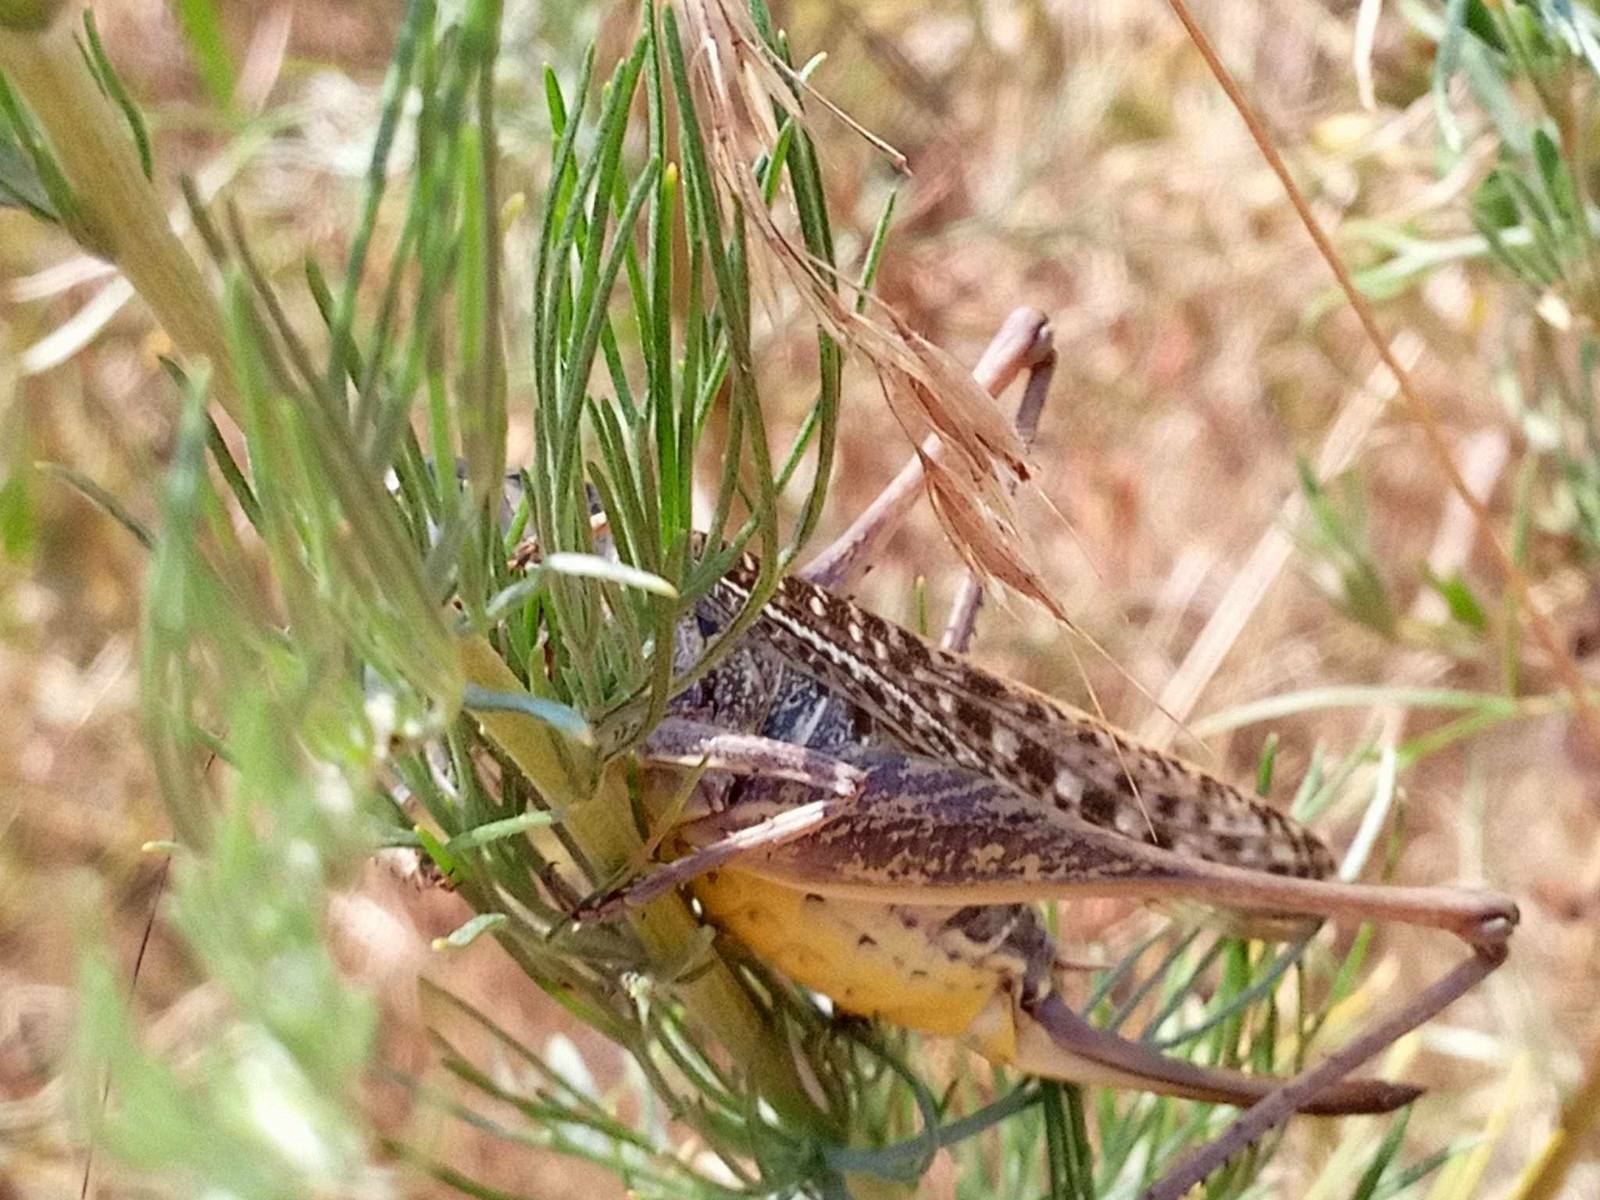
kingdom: Animalia
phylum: Arthropoda
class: Insecta
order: Orthoptera
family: Tettigoniidae
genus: Decticus
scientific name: Decticus verrucivorus
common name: Wart-biter
